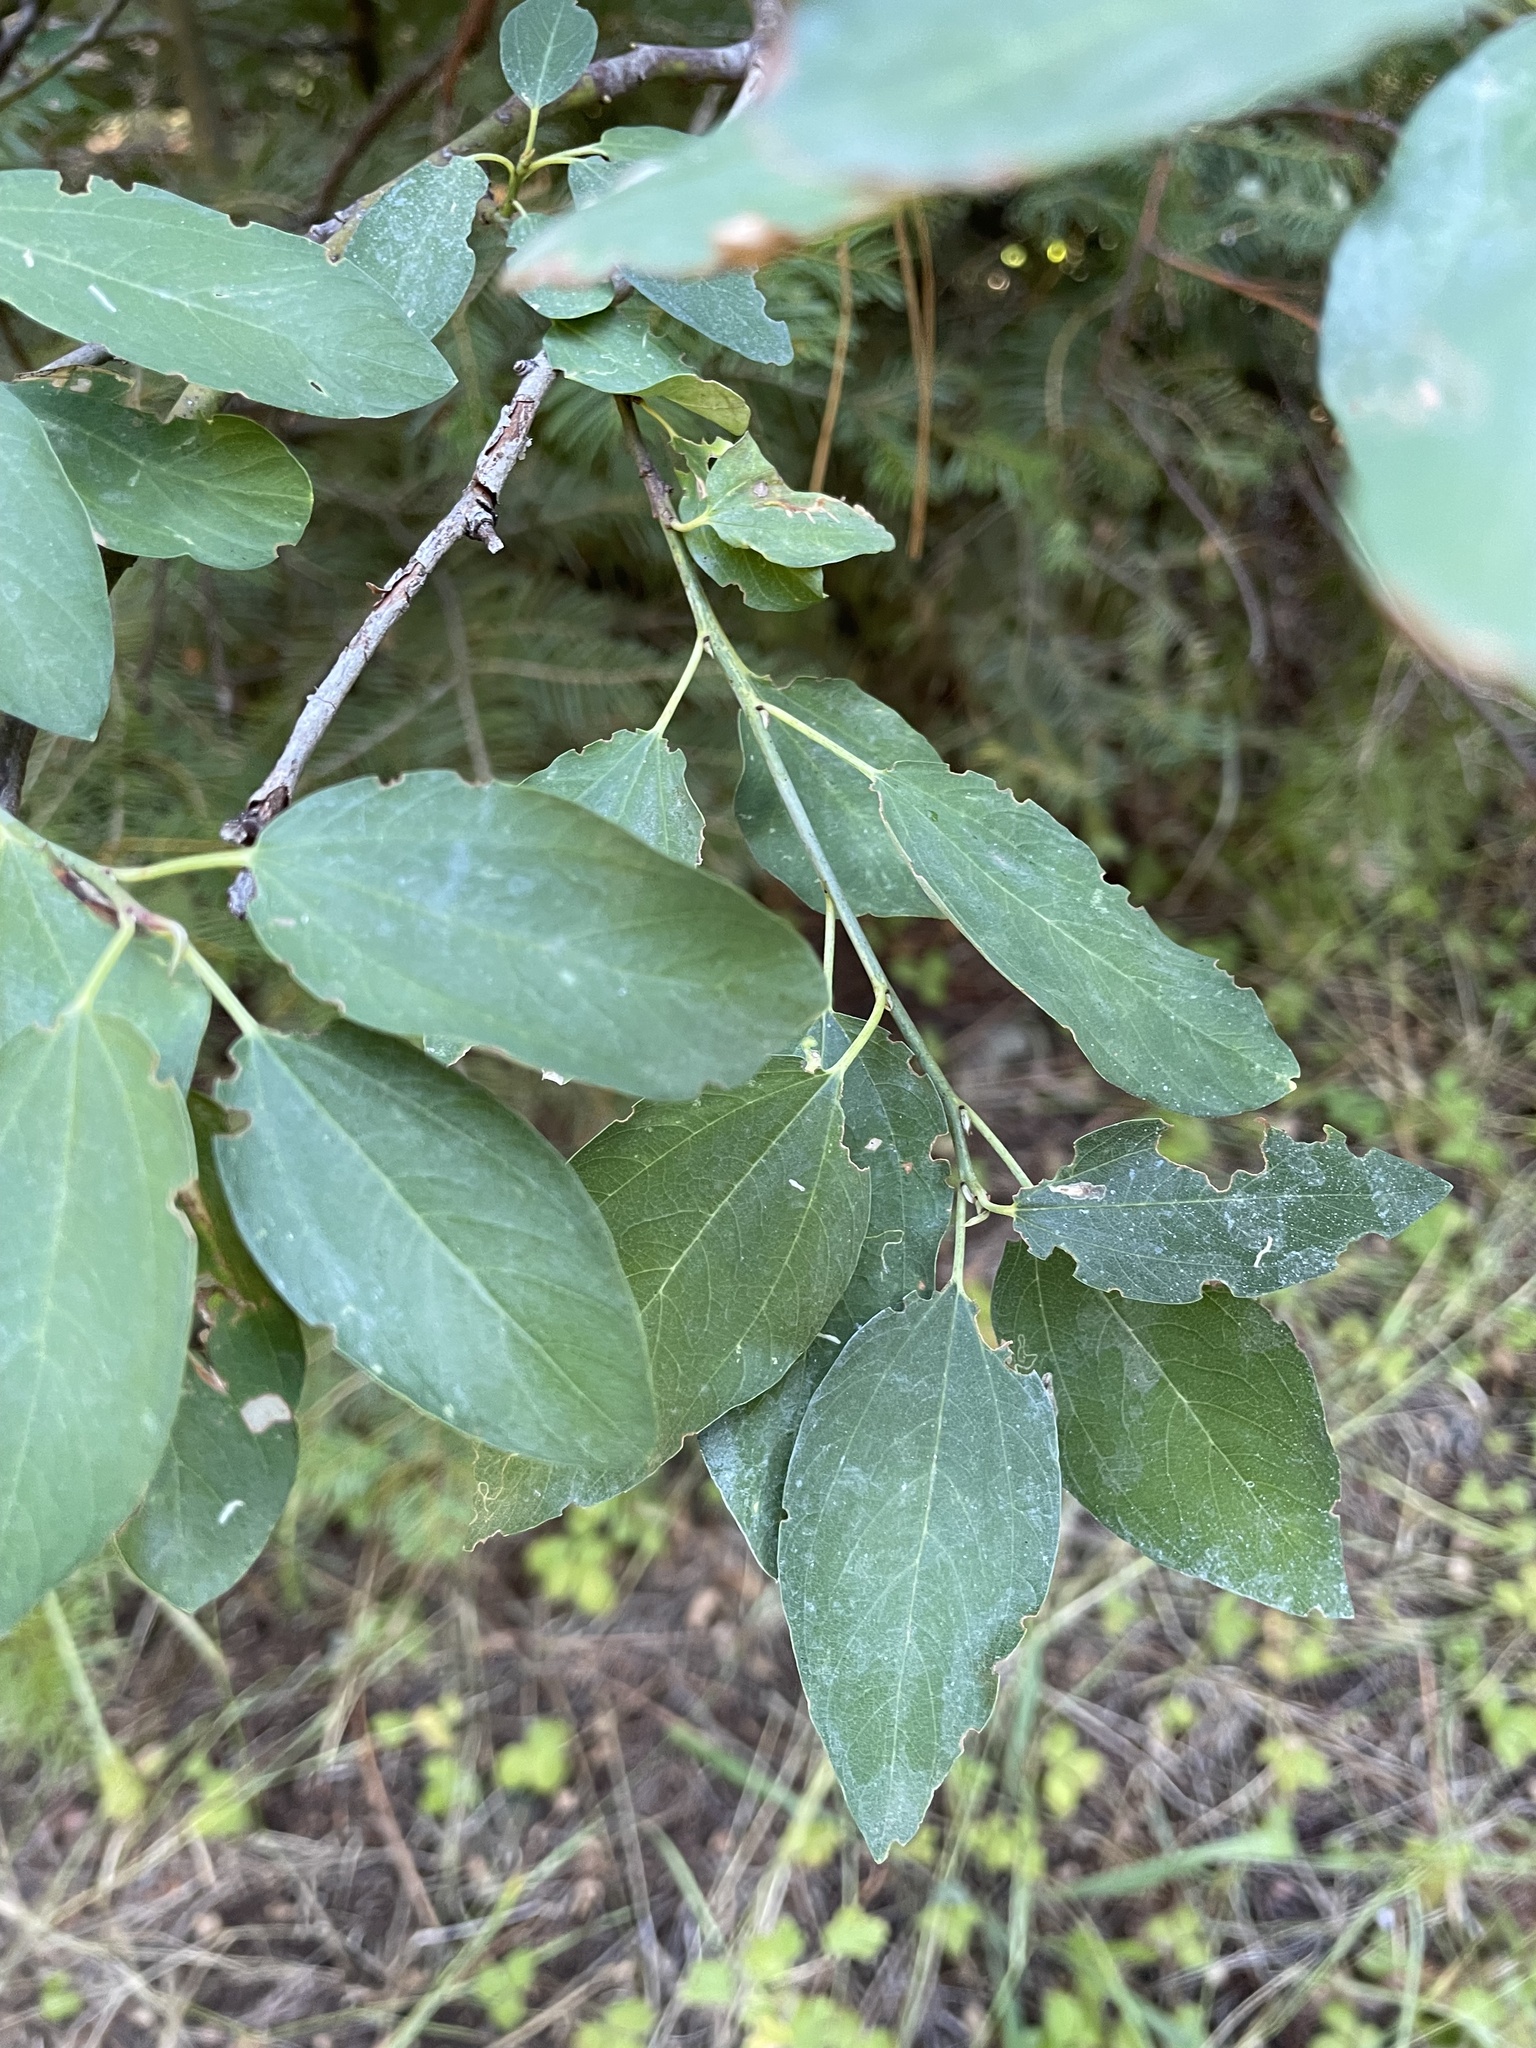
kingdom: Plantae
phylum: Tracheophyta
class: Magnoliopsida
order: Rosales
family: Rhamnaceae
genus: Ceanothus
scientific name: Ceanothus integerrimus
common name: Deerbrush ceanothus
